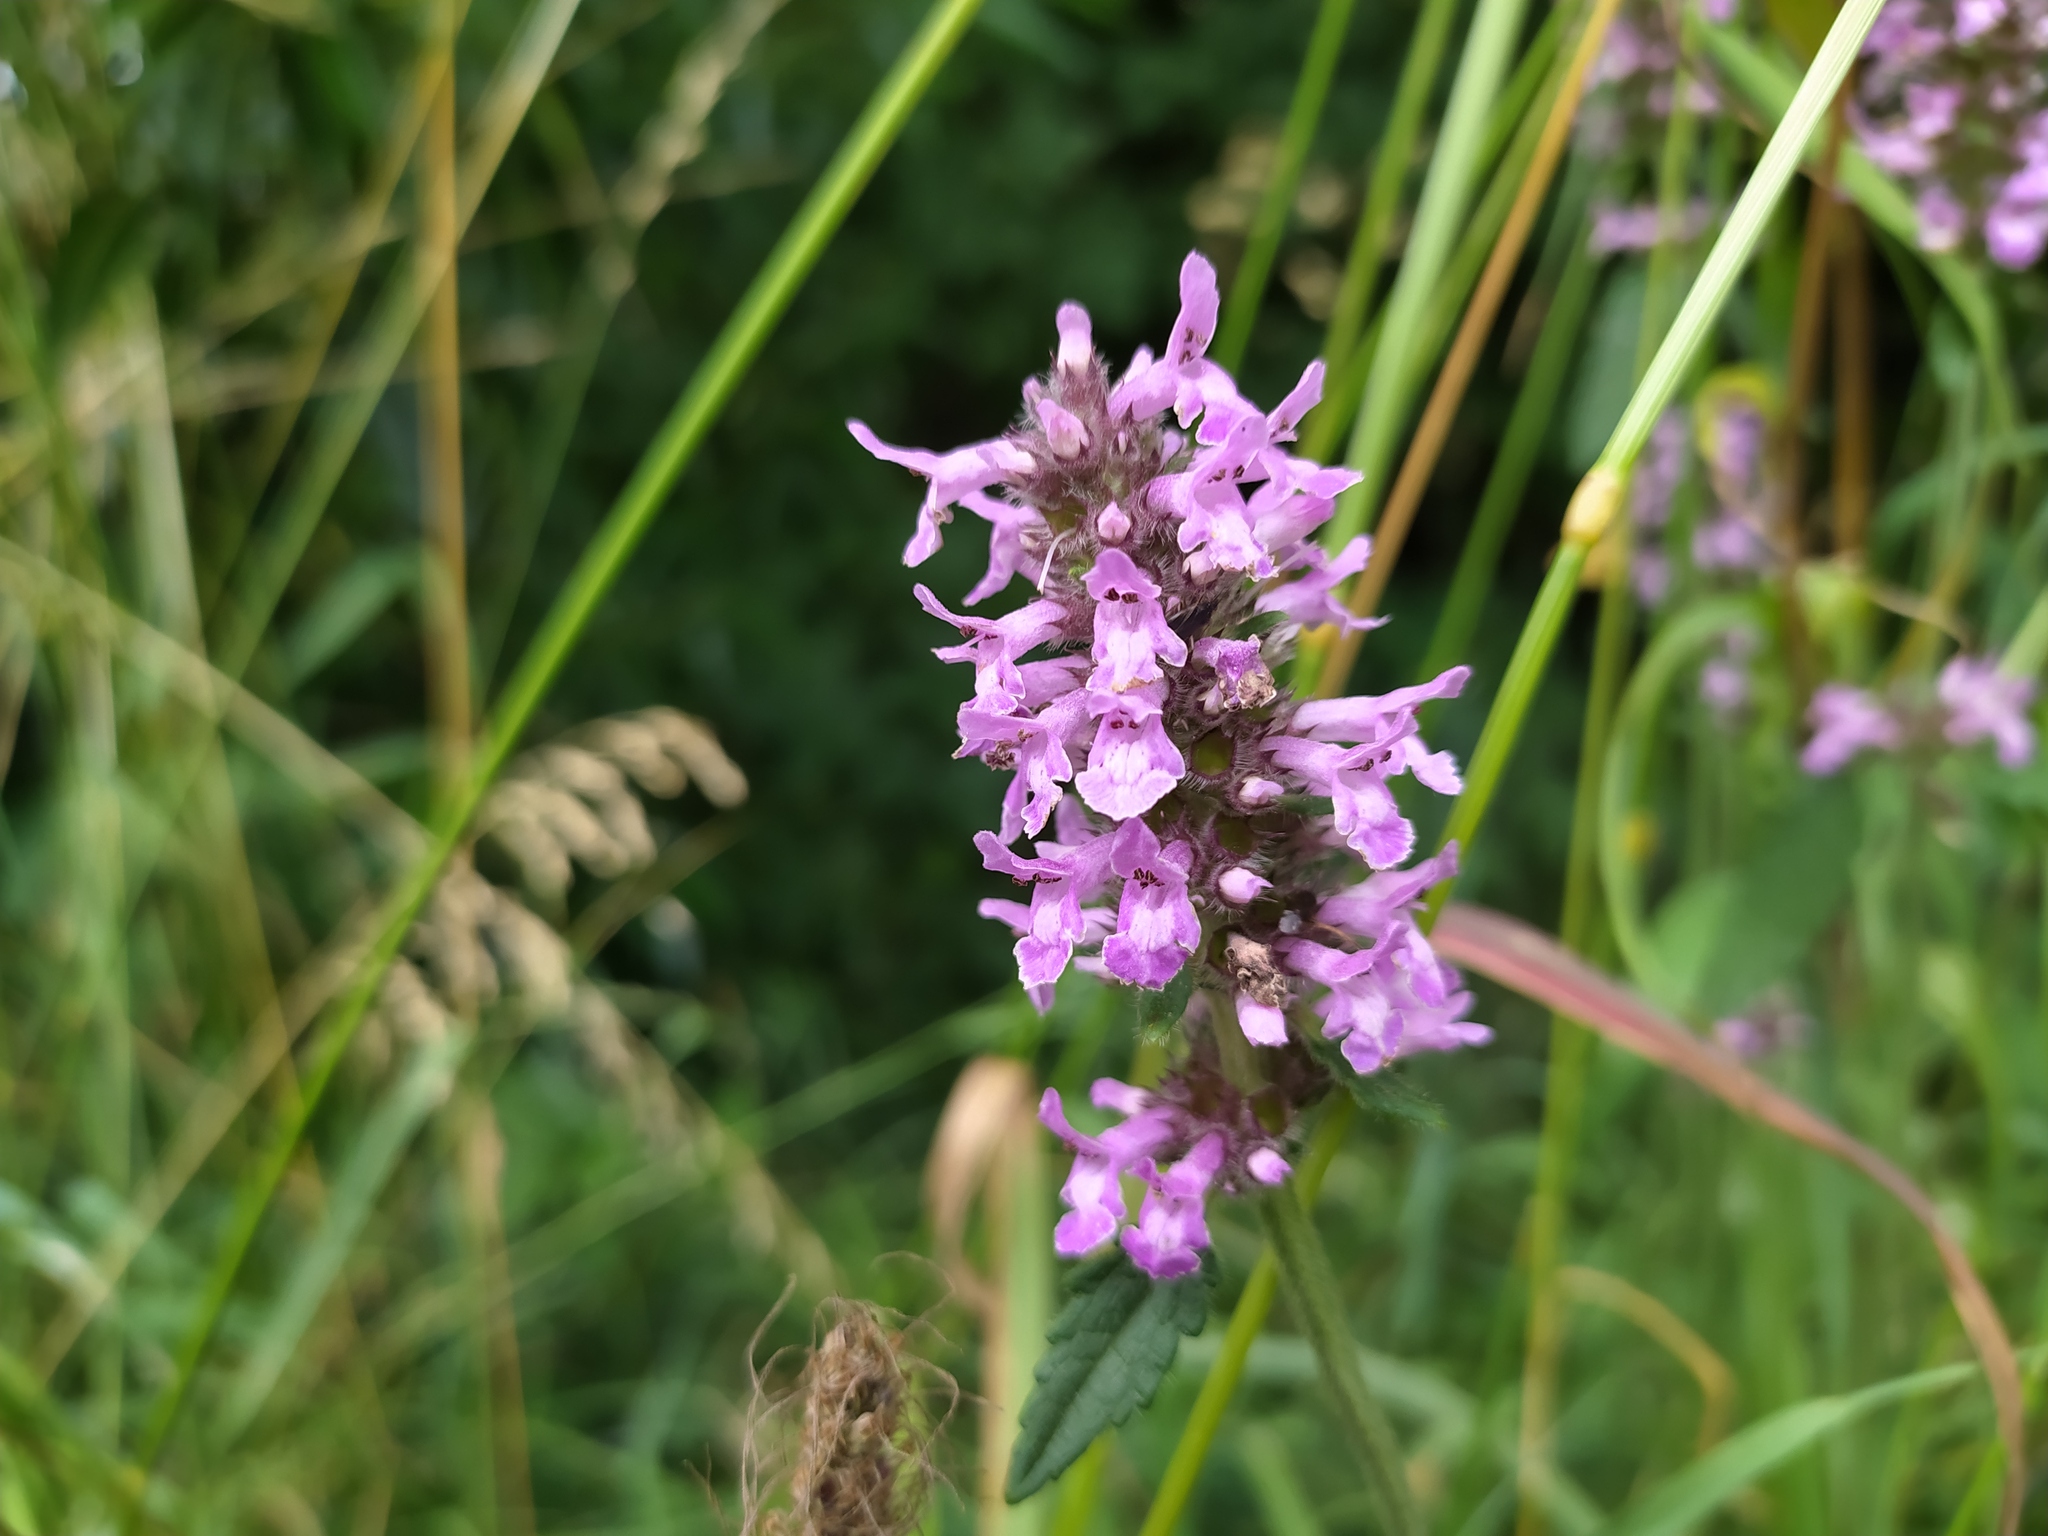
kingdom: Plantae
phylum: Tracheophyta
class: Magnoliopsida
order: Lamiales
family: Lamiaceae
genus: Betonica
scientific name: Betonica officinalis
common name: Bishop's-wort
